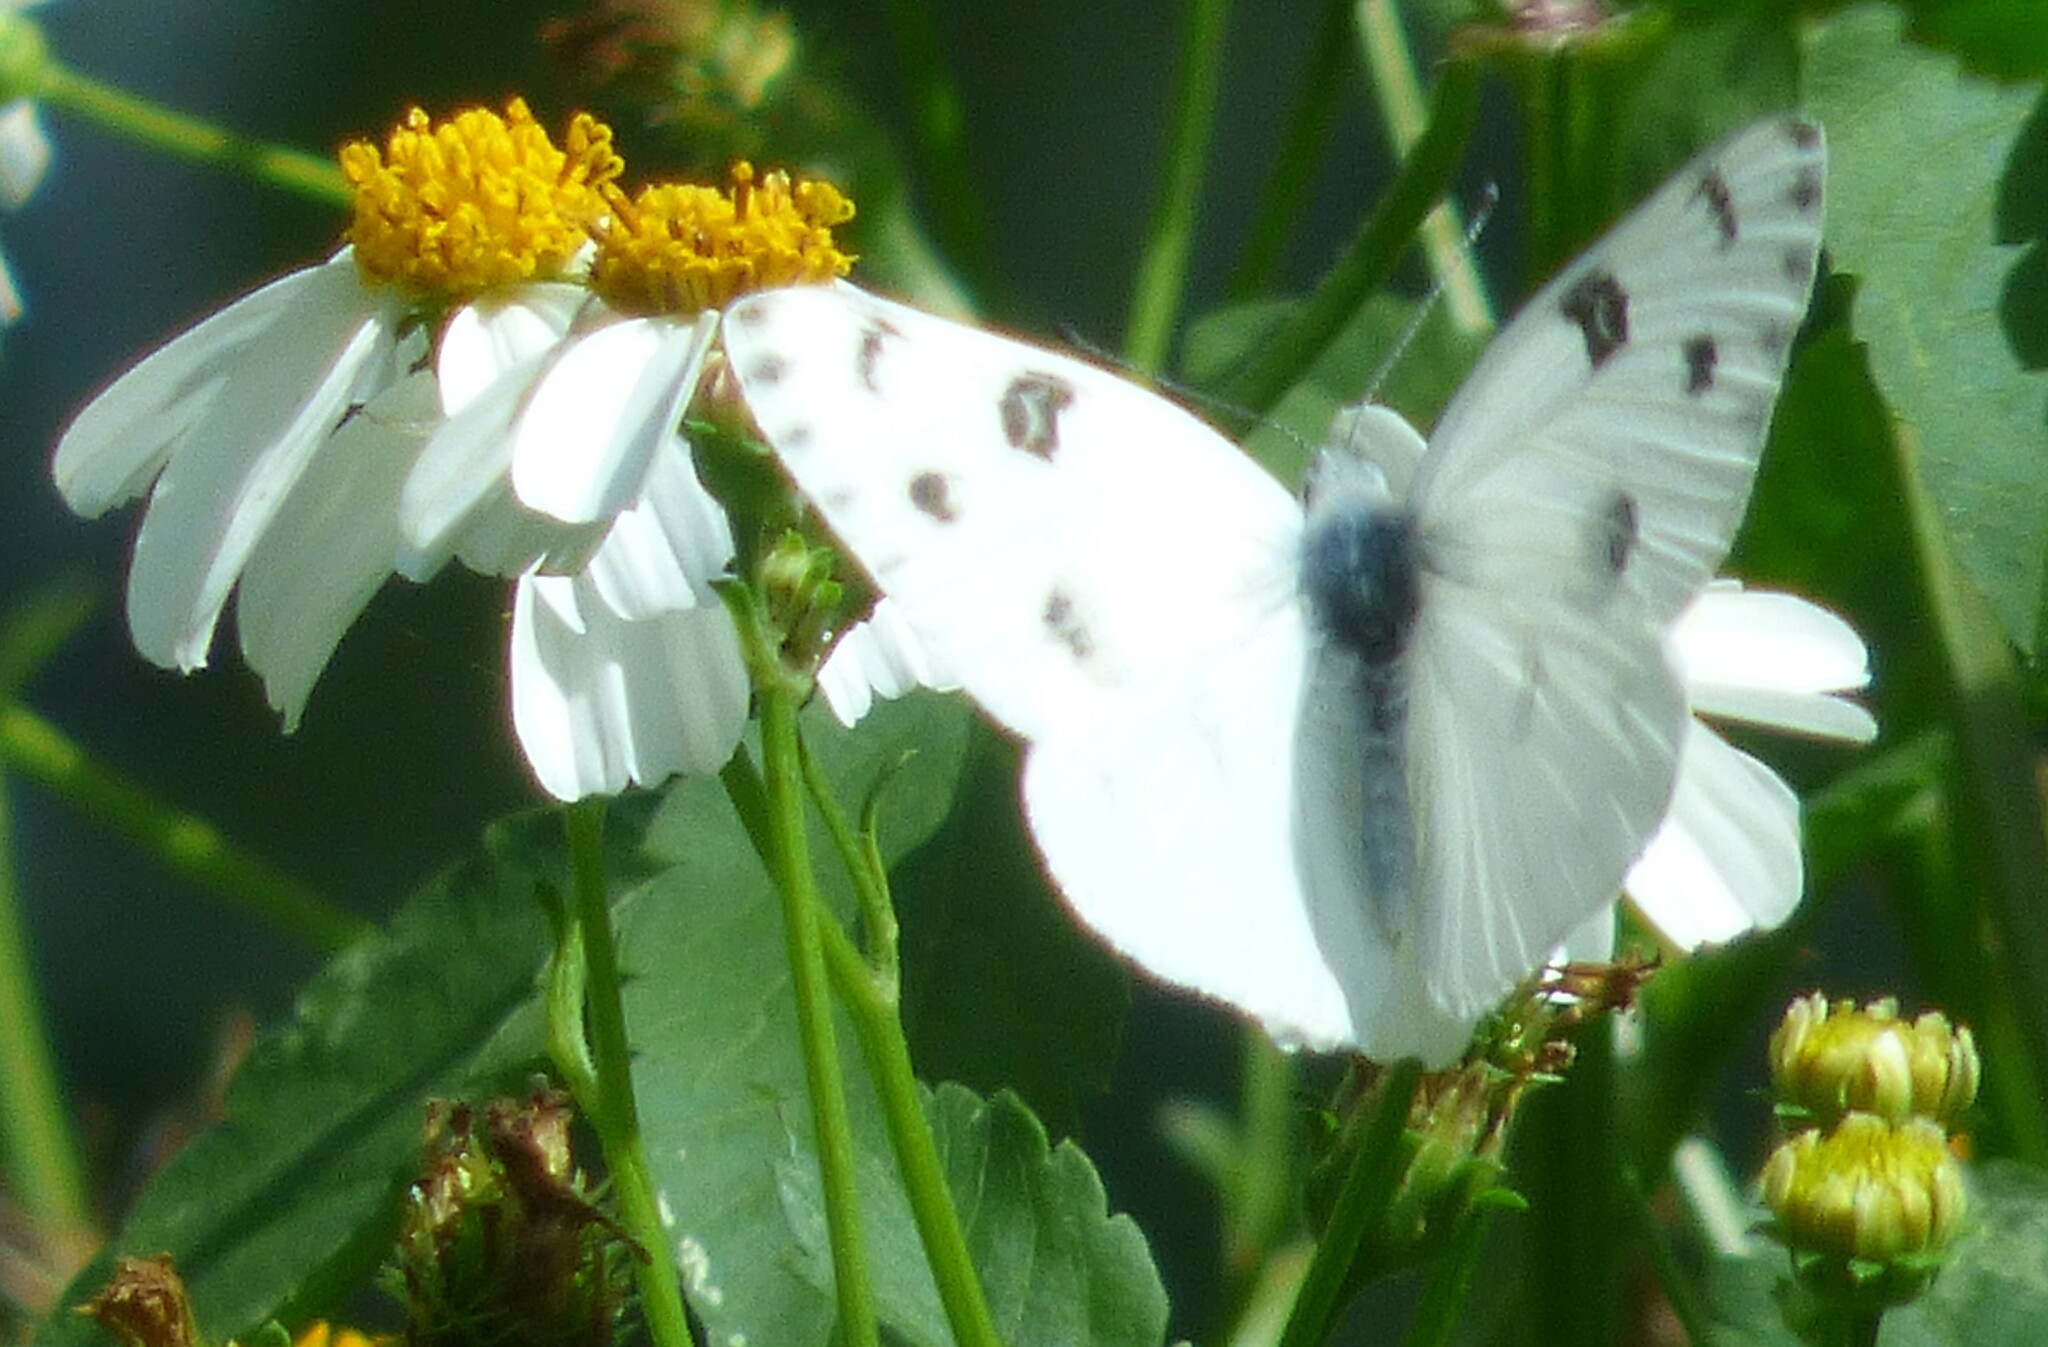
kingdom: Animalia
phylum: Arthropoda
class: Insecta
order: Lepidoptera
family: Pieridae
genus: Pontia
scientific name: Pontia protodice
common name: Checkered white
